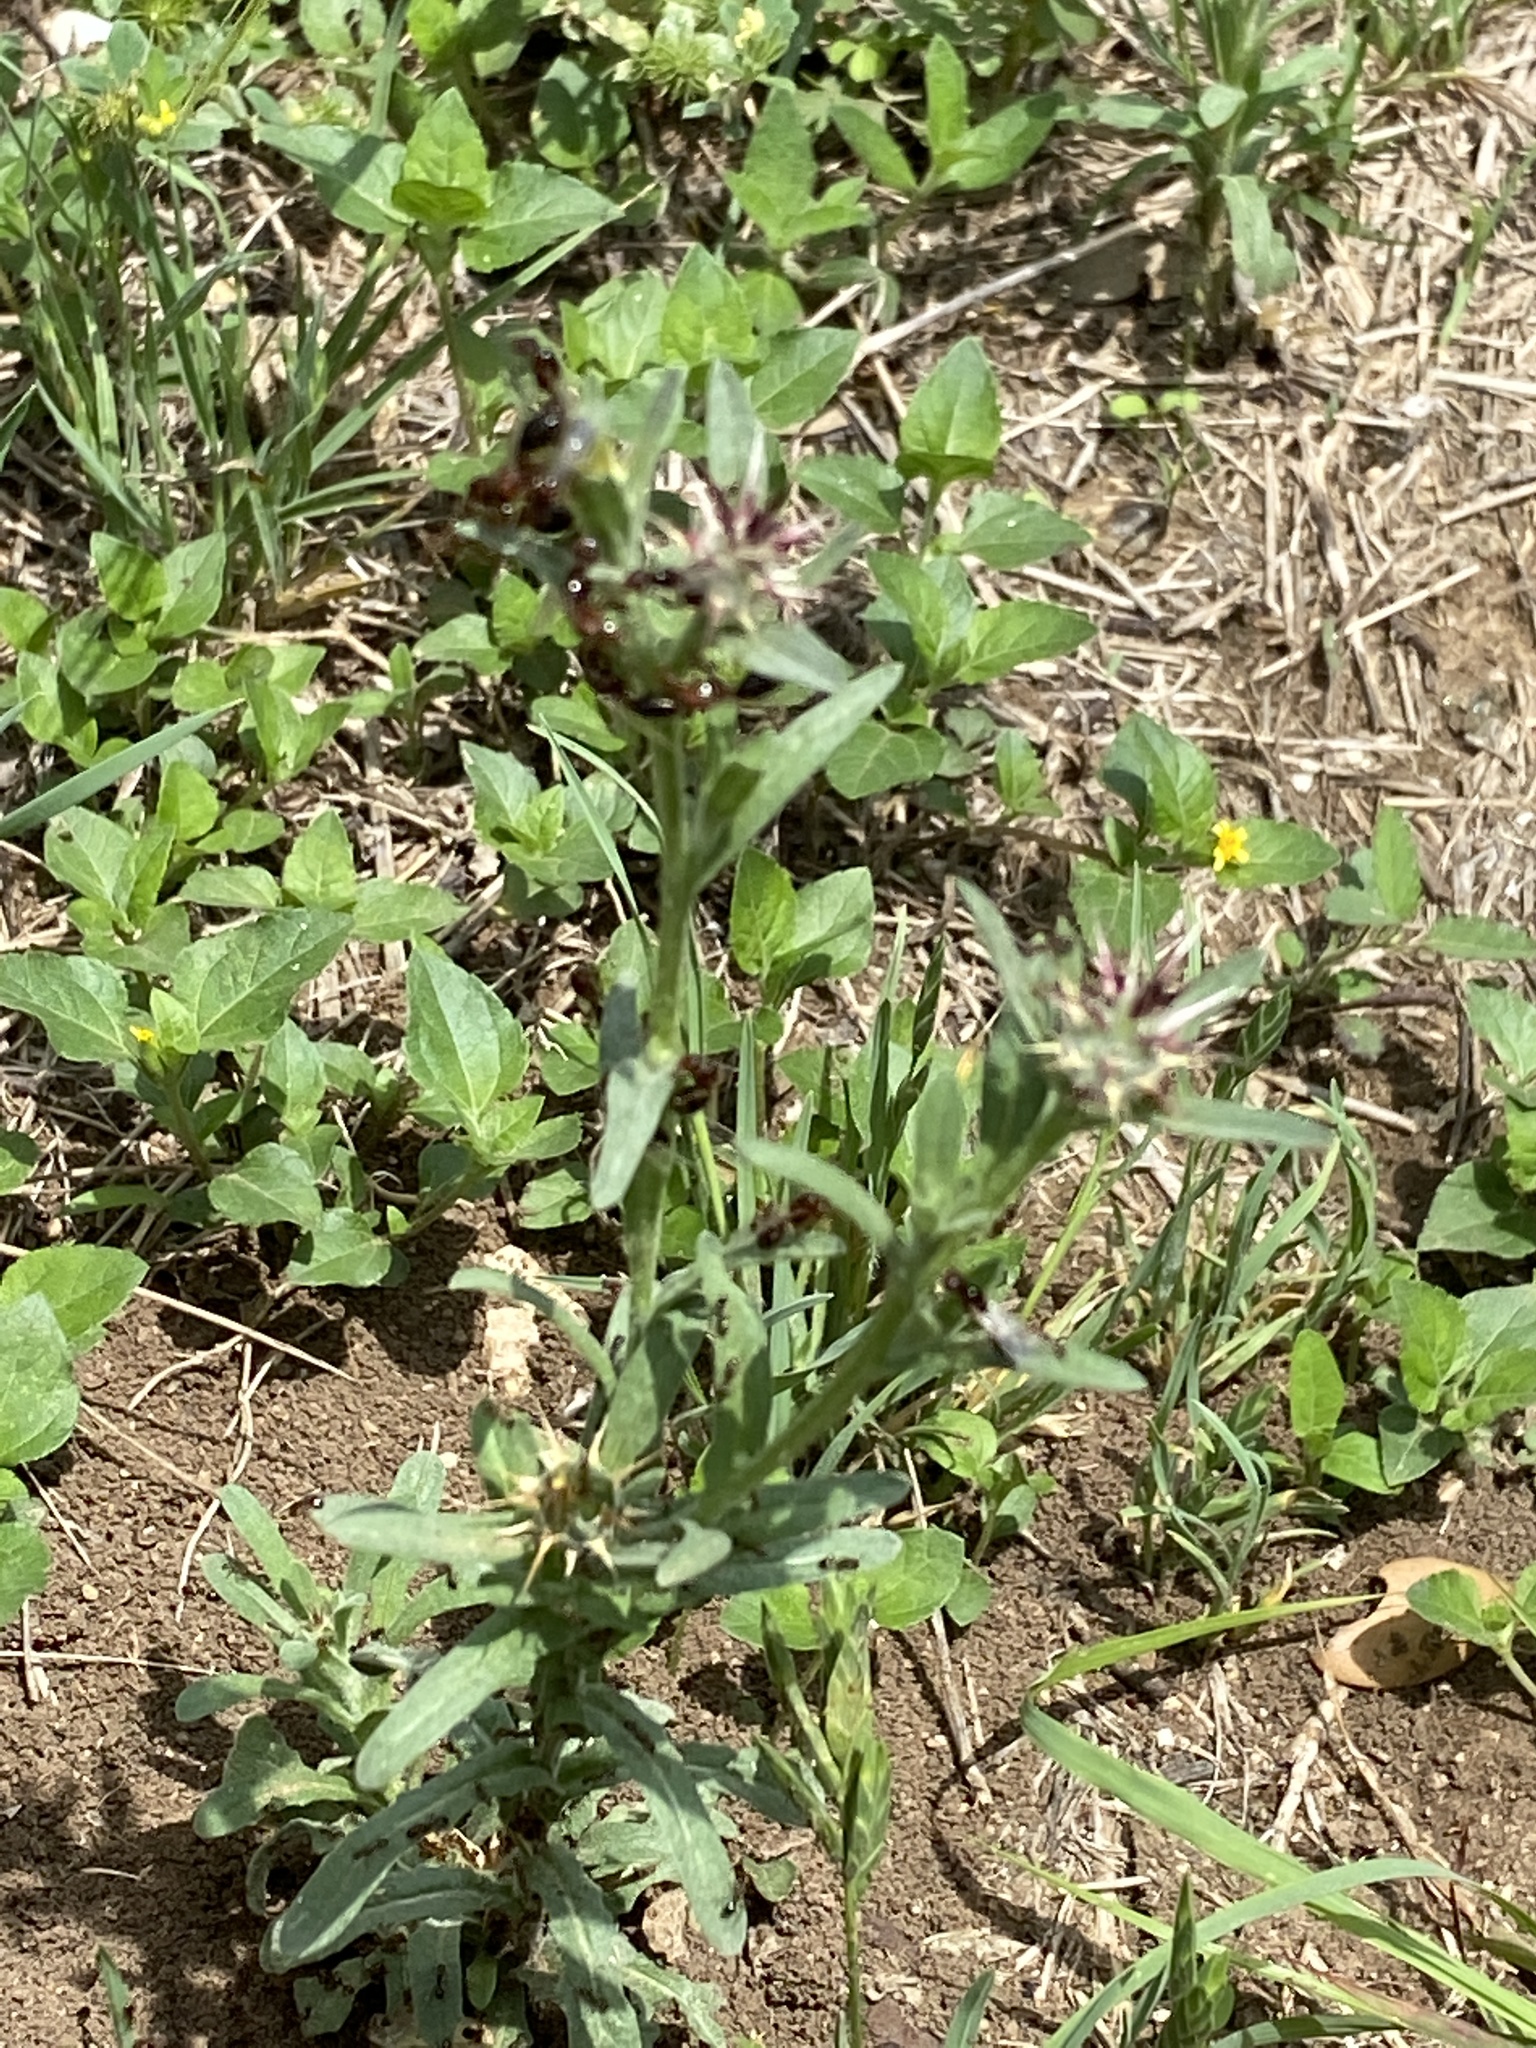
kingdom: Plantae
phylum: Tracheophyta
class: Magnoliopsida
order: Asterales
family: Asteraceae
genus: Centaurea
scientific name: Centaurea melitensis
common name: Maltese star-thistle
